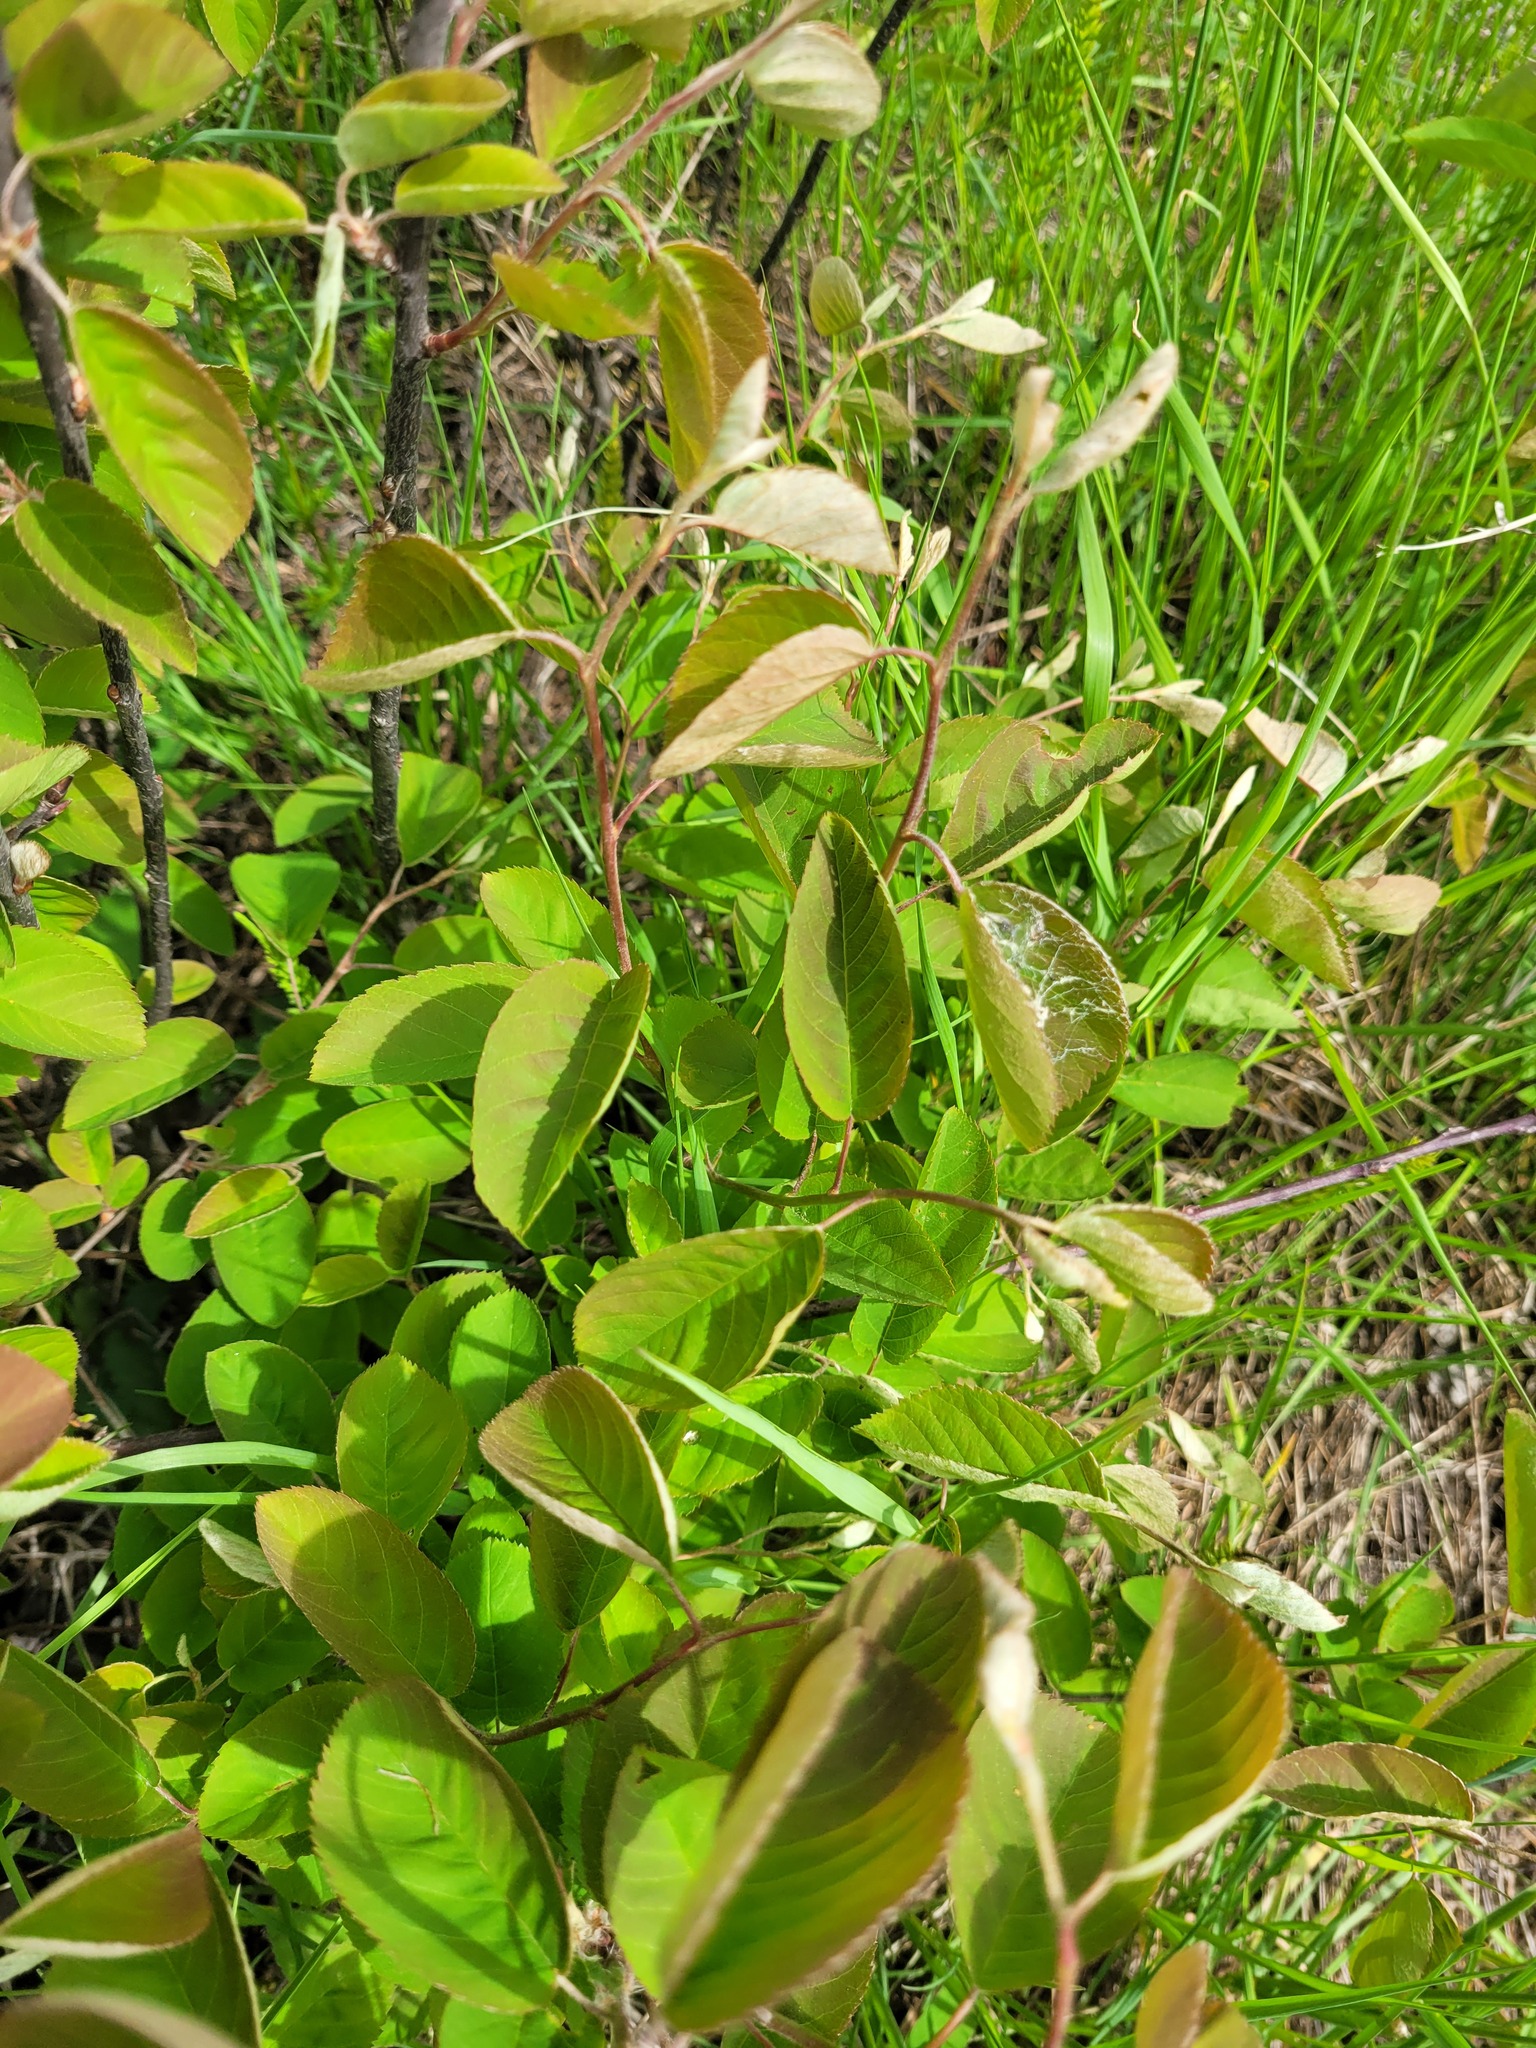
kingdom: Plantae
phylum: Tracheophyta
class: Magnoliopsida
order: Rosales
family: Rosaceae
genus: Amelanchier
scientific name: Amelanchier
